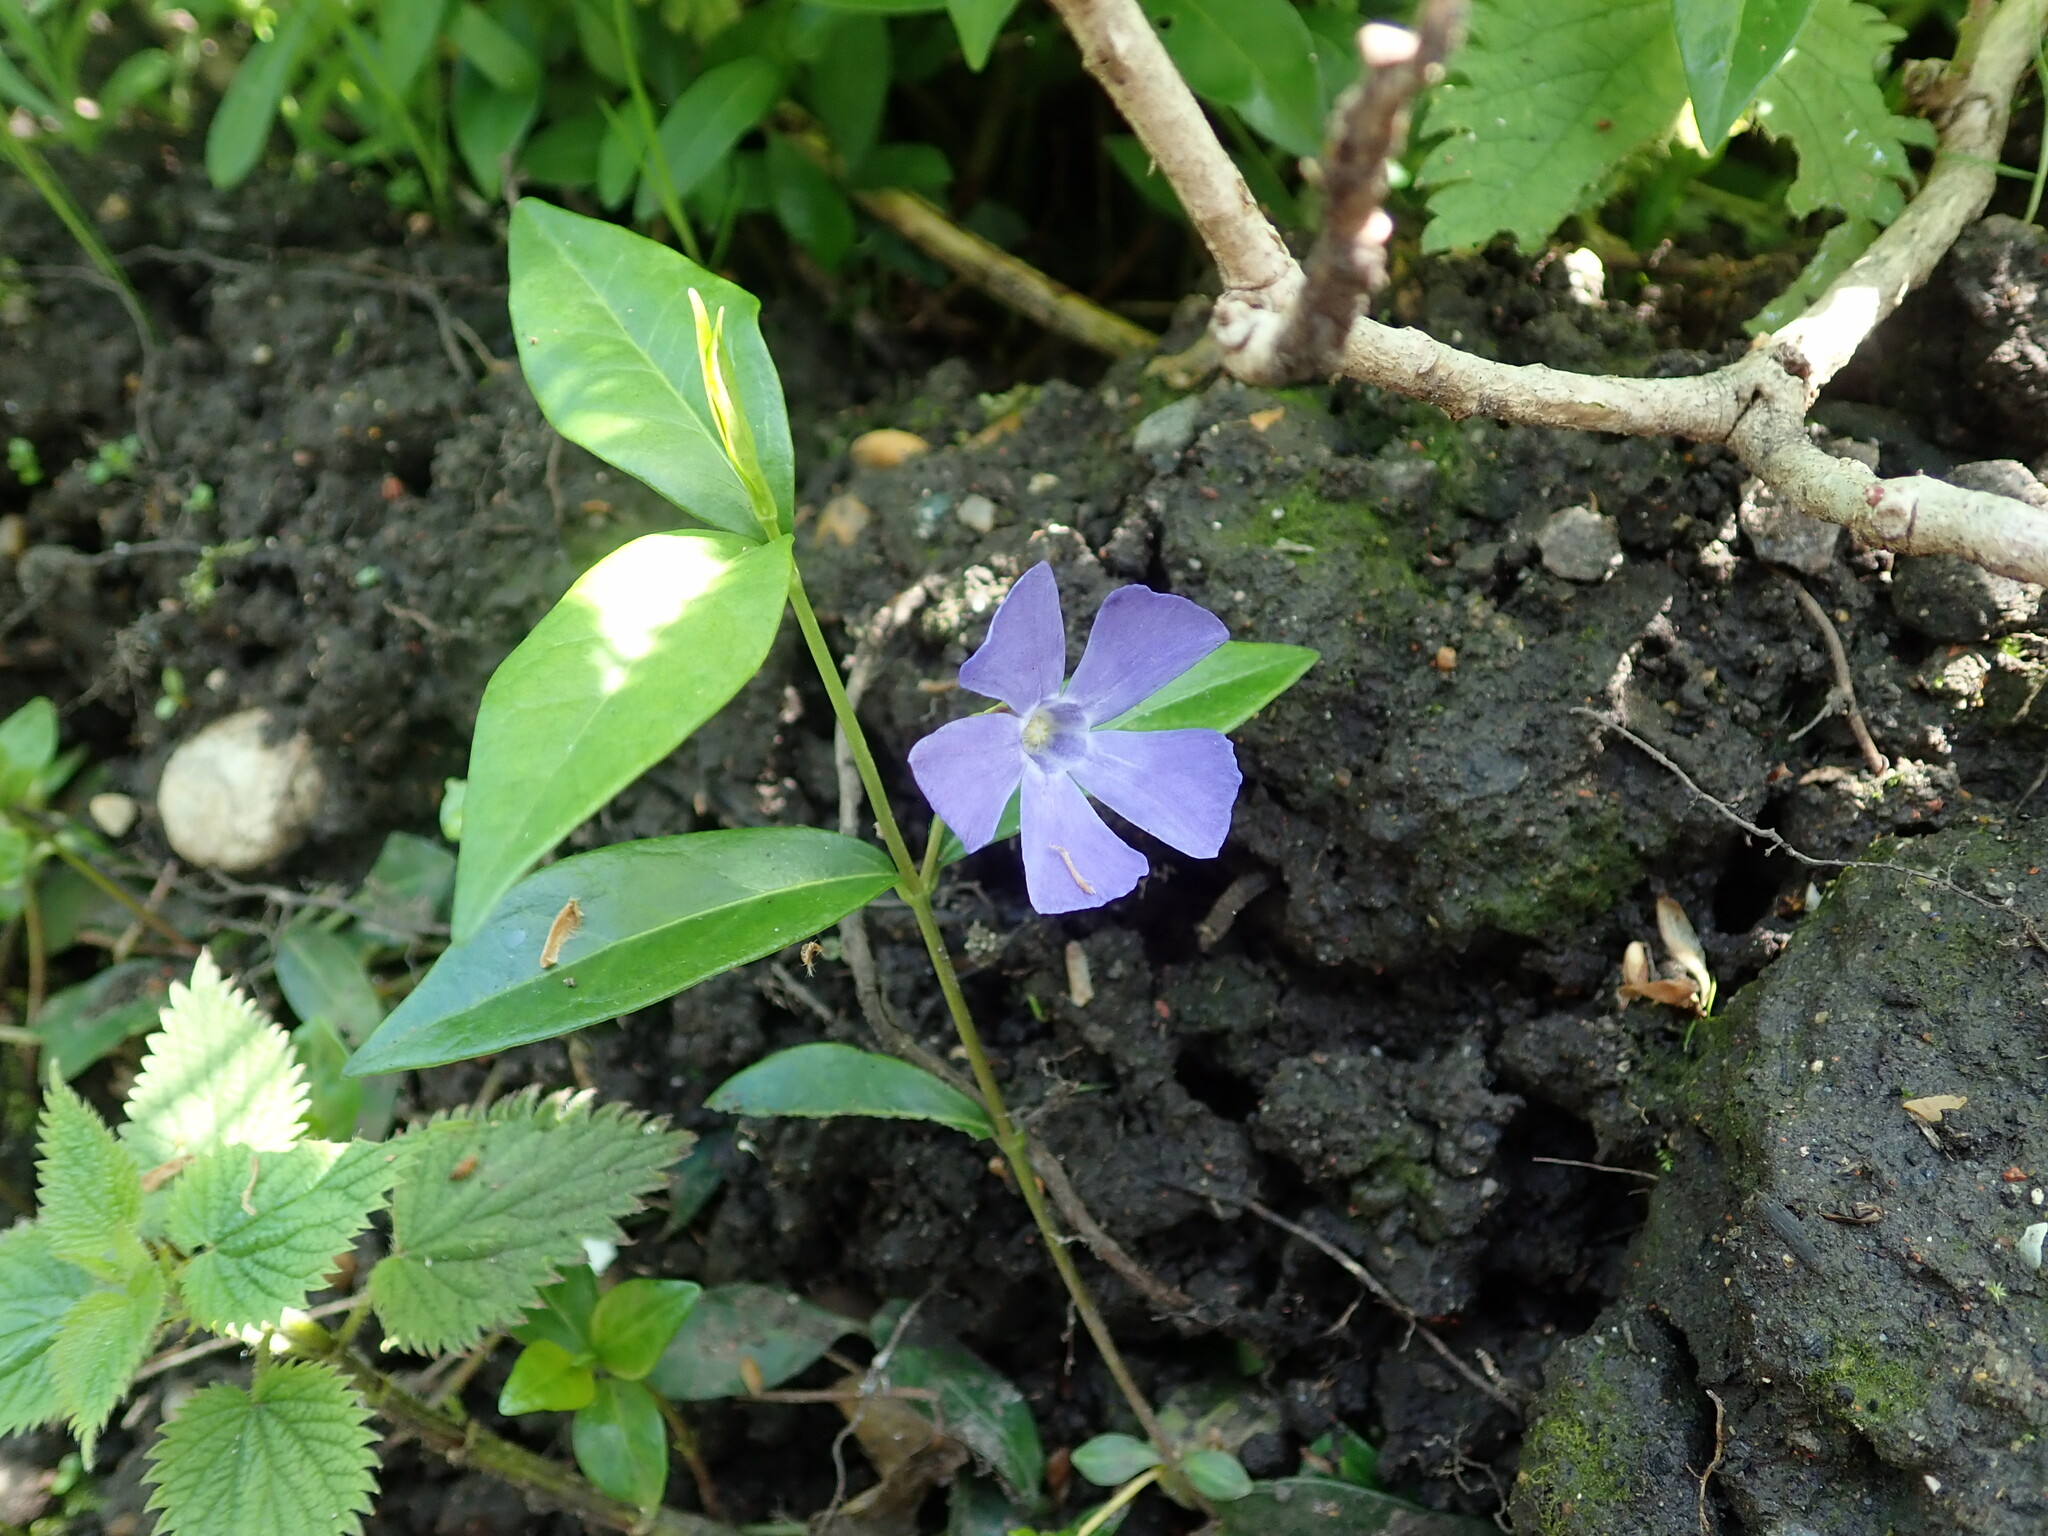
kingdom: Plantae
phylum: Tracheophyta
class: Magnoliopsida
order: Gentianales
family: Apocynaceae
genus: Vinca
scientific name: Vinca minor
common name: Lesser periwinkle
